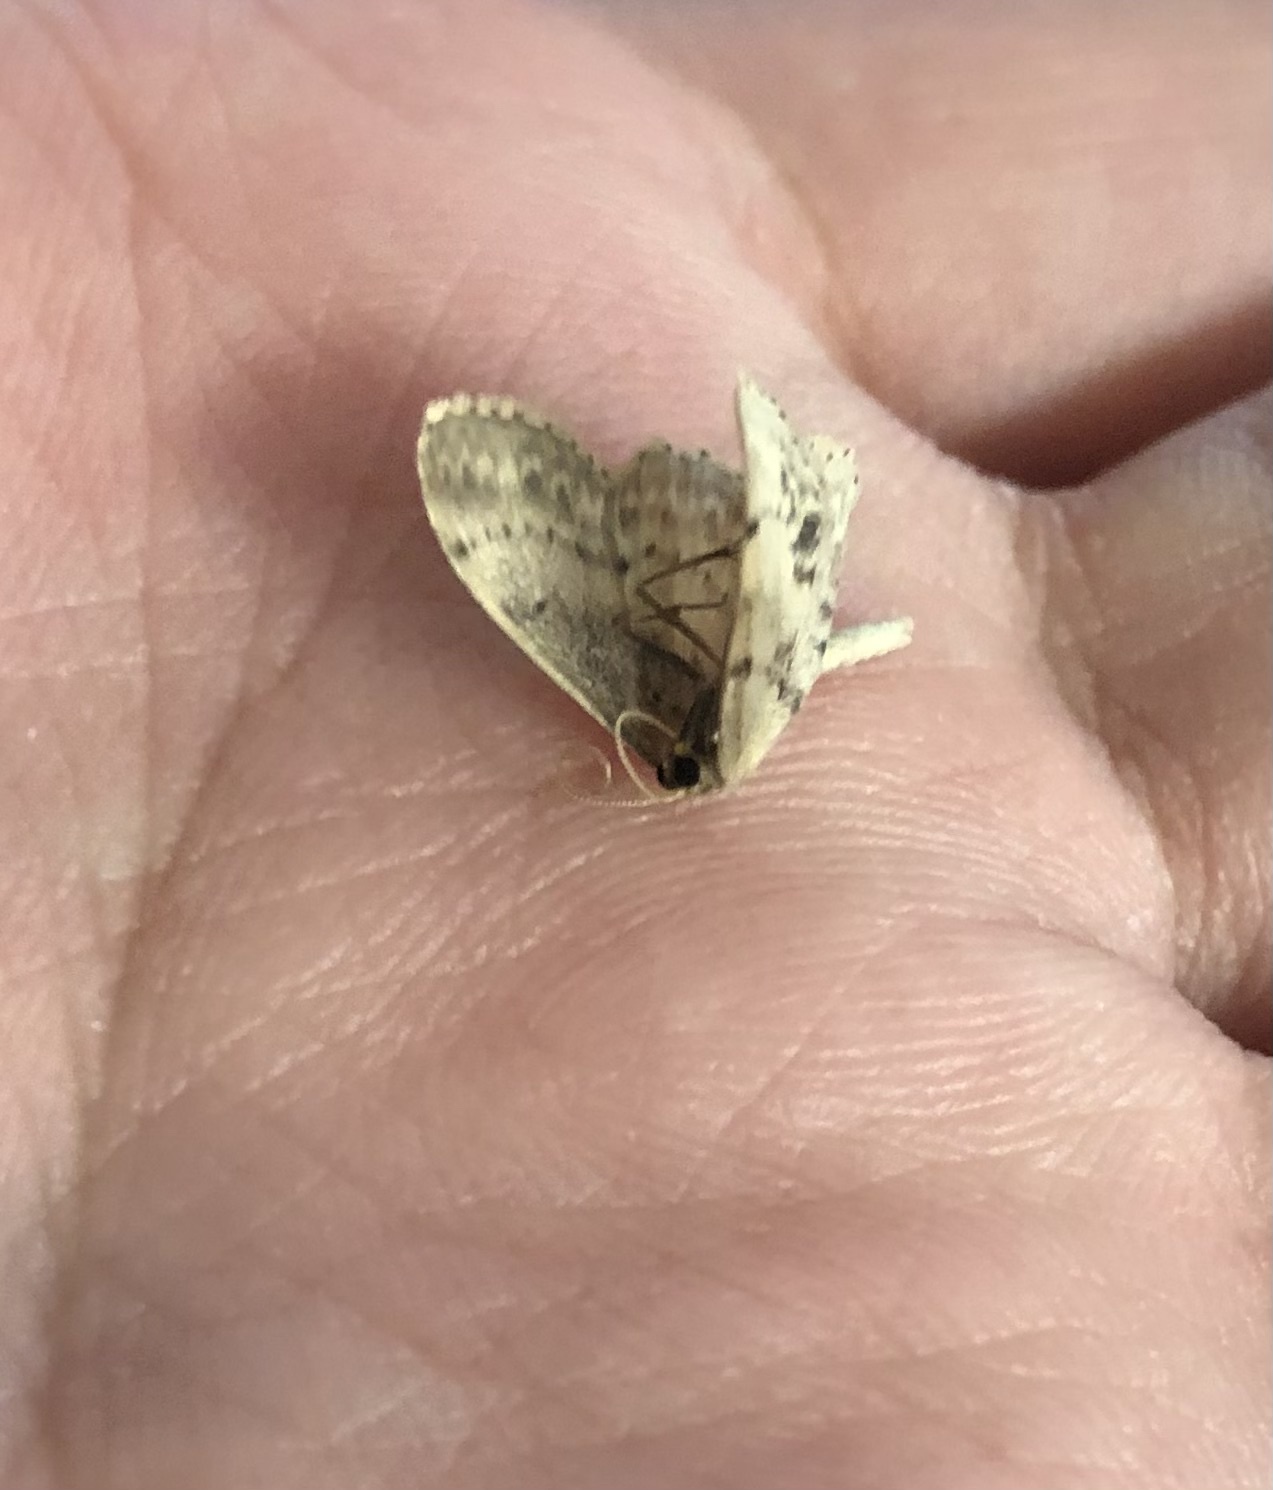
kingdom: Animalia
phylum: Arthropoda
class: Insecta
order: Lepidoptera
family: Geometridae
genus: Idaea
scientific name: Idaea dimidiata
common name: Single-dotted wave
